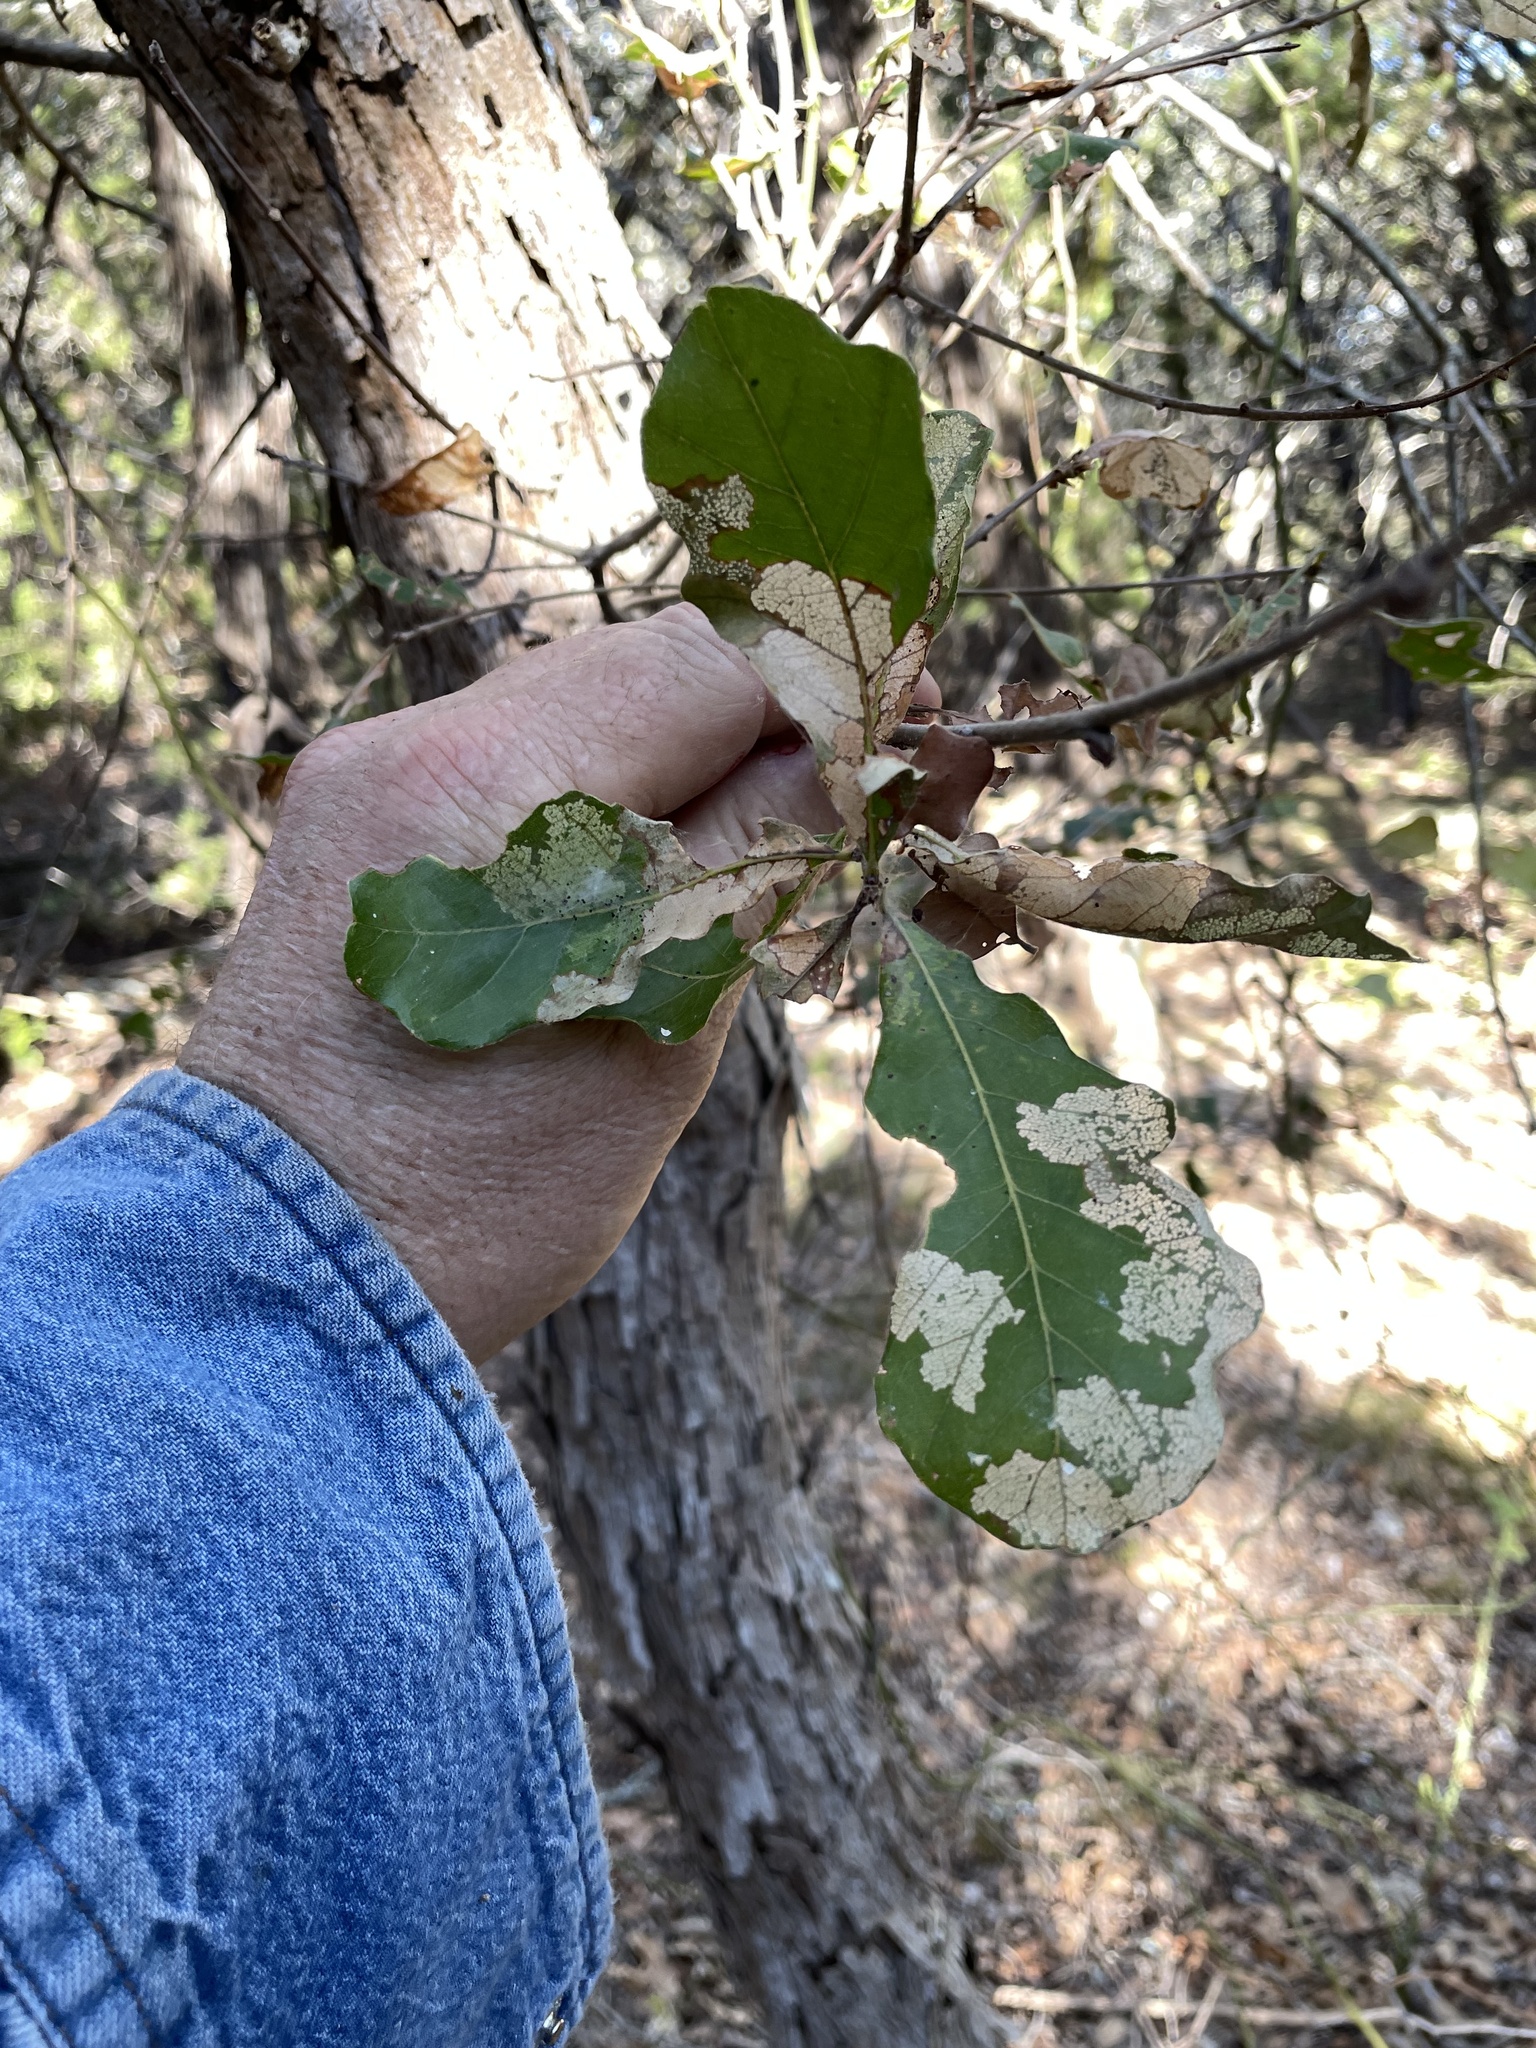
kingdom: Plantae
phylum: Tracheophyta
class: Magnoliopsida
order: Fagales
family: Fagaceae
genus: Quercus
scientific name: Quercus sinuata
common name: Durand oak
